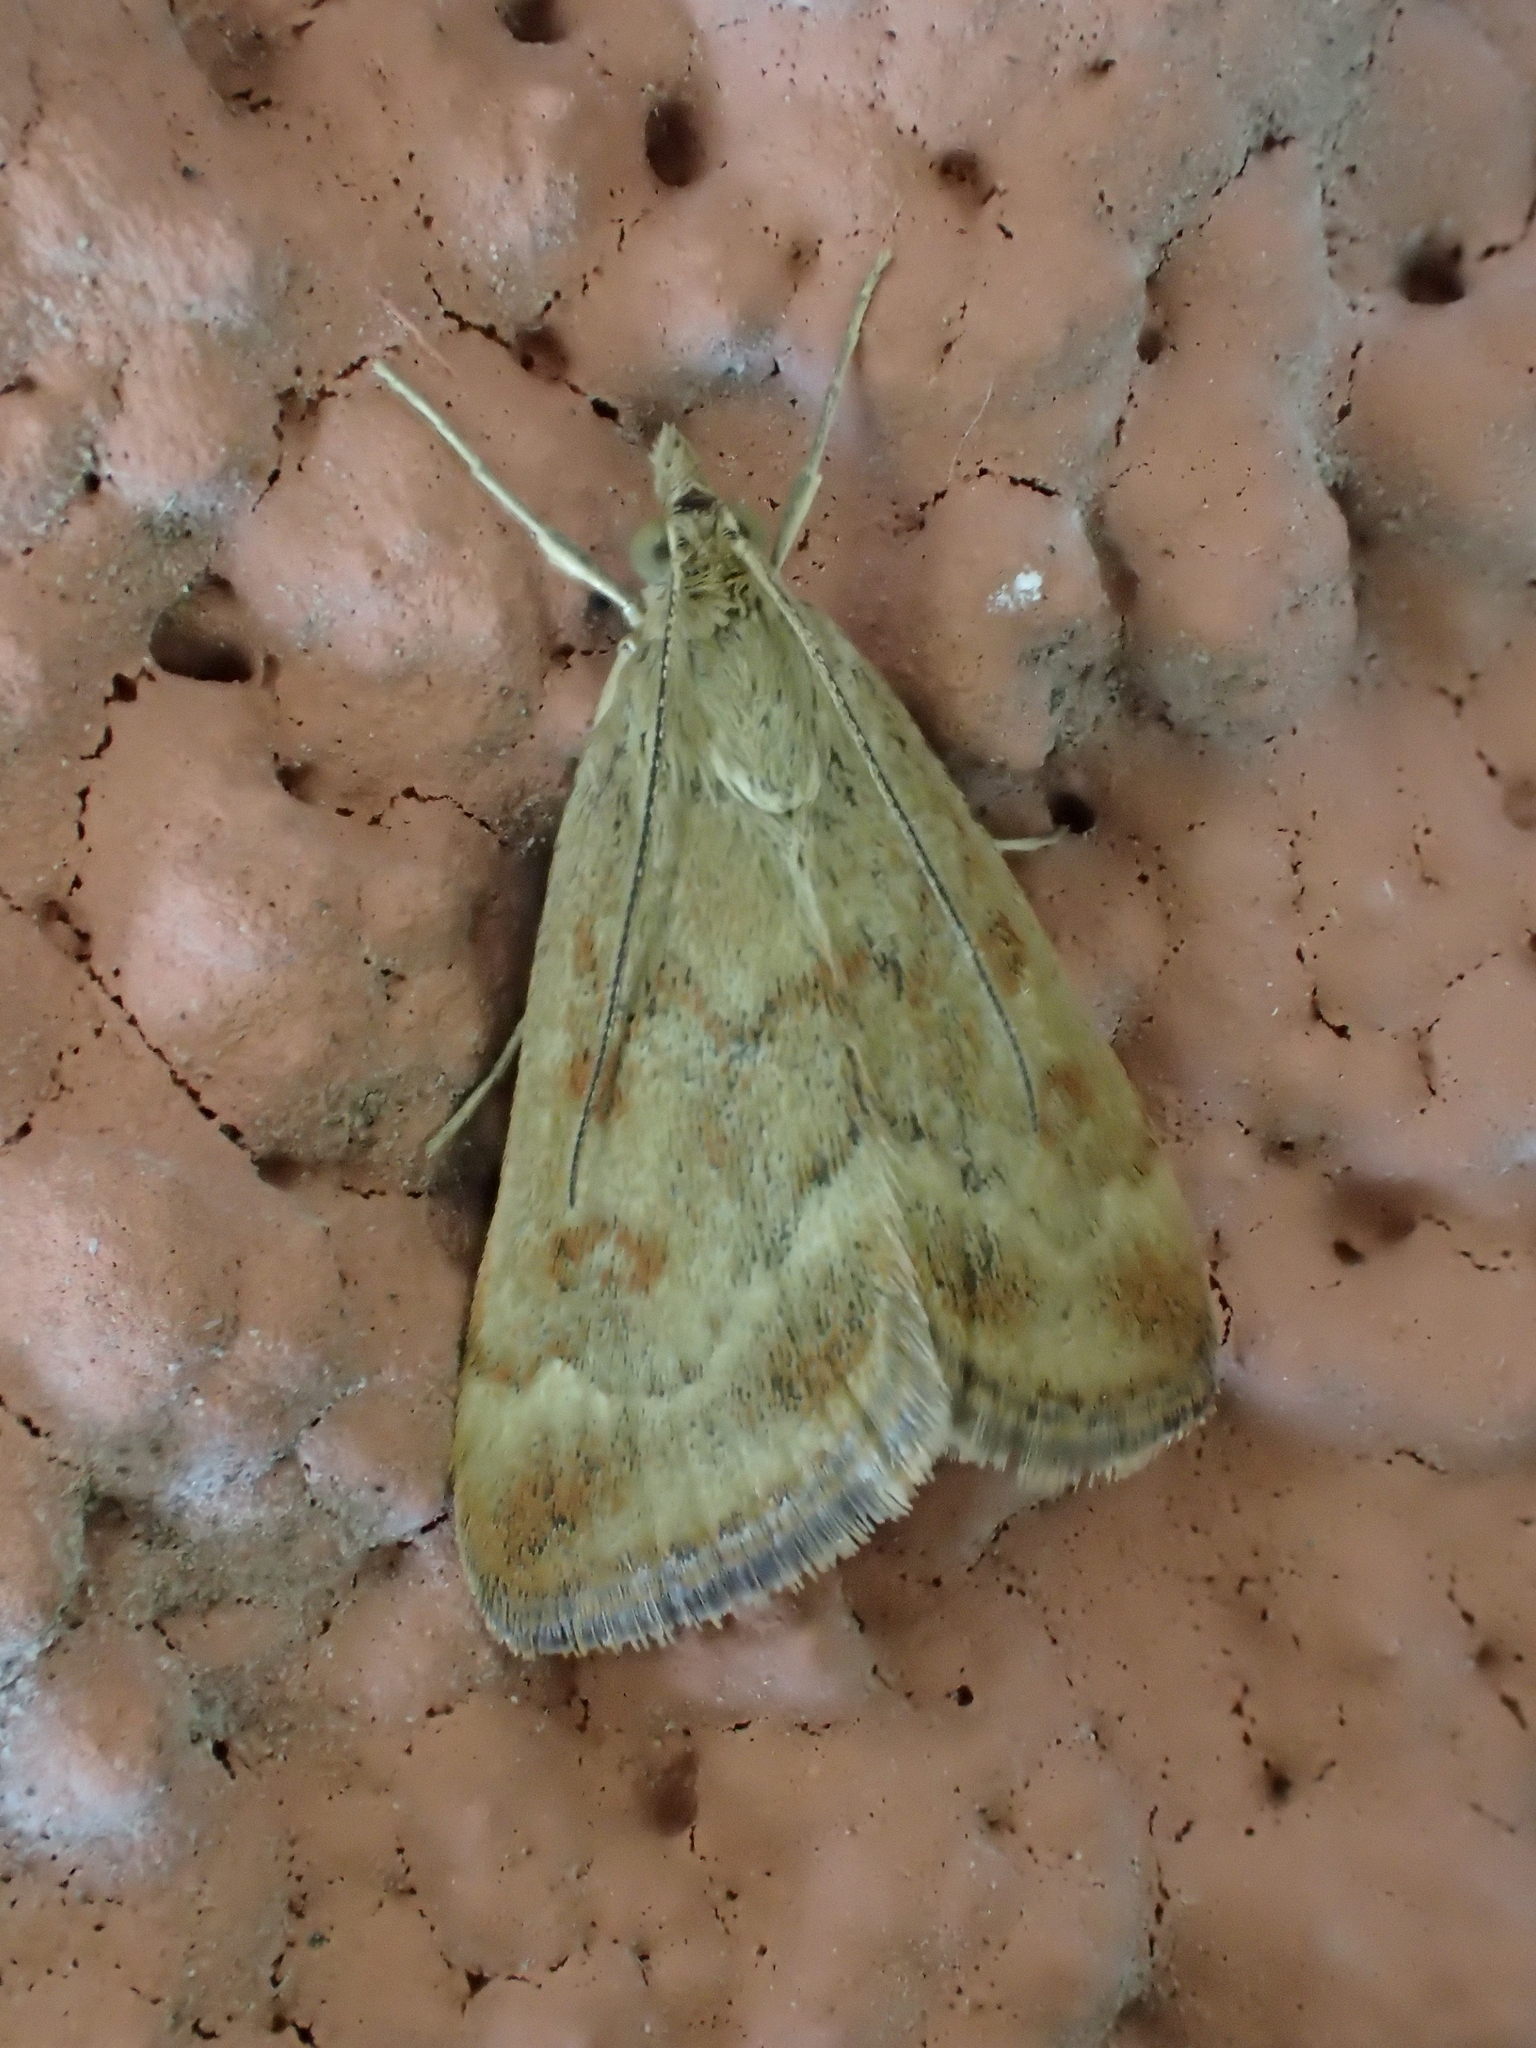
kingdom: Animalia
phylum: Arthropoda
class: Insecta
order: Lepidoptera
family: Crambidae
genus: Pyrausta
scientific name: Pyrausta despicata
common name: Straw-barred pearl
